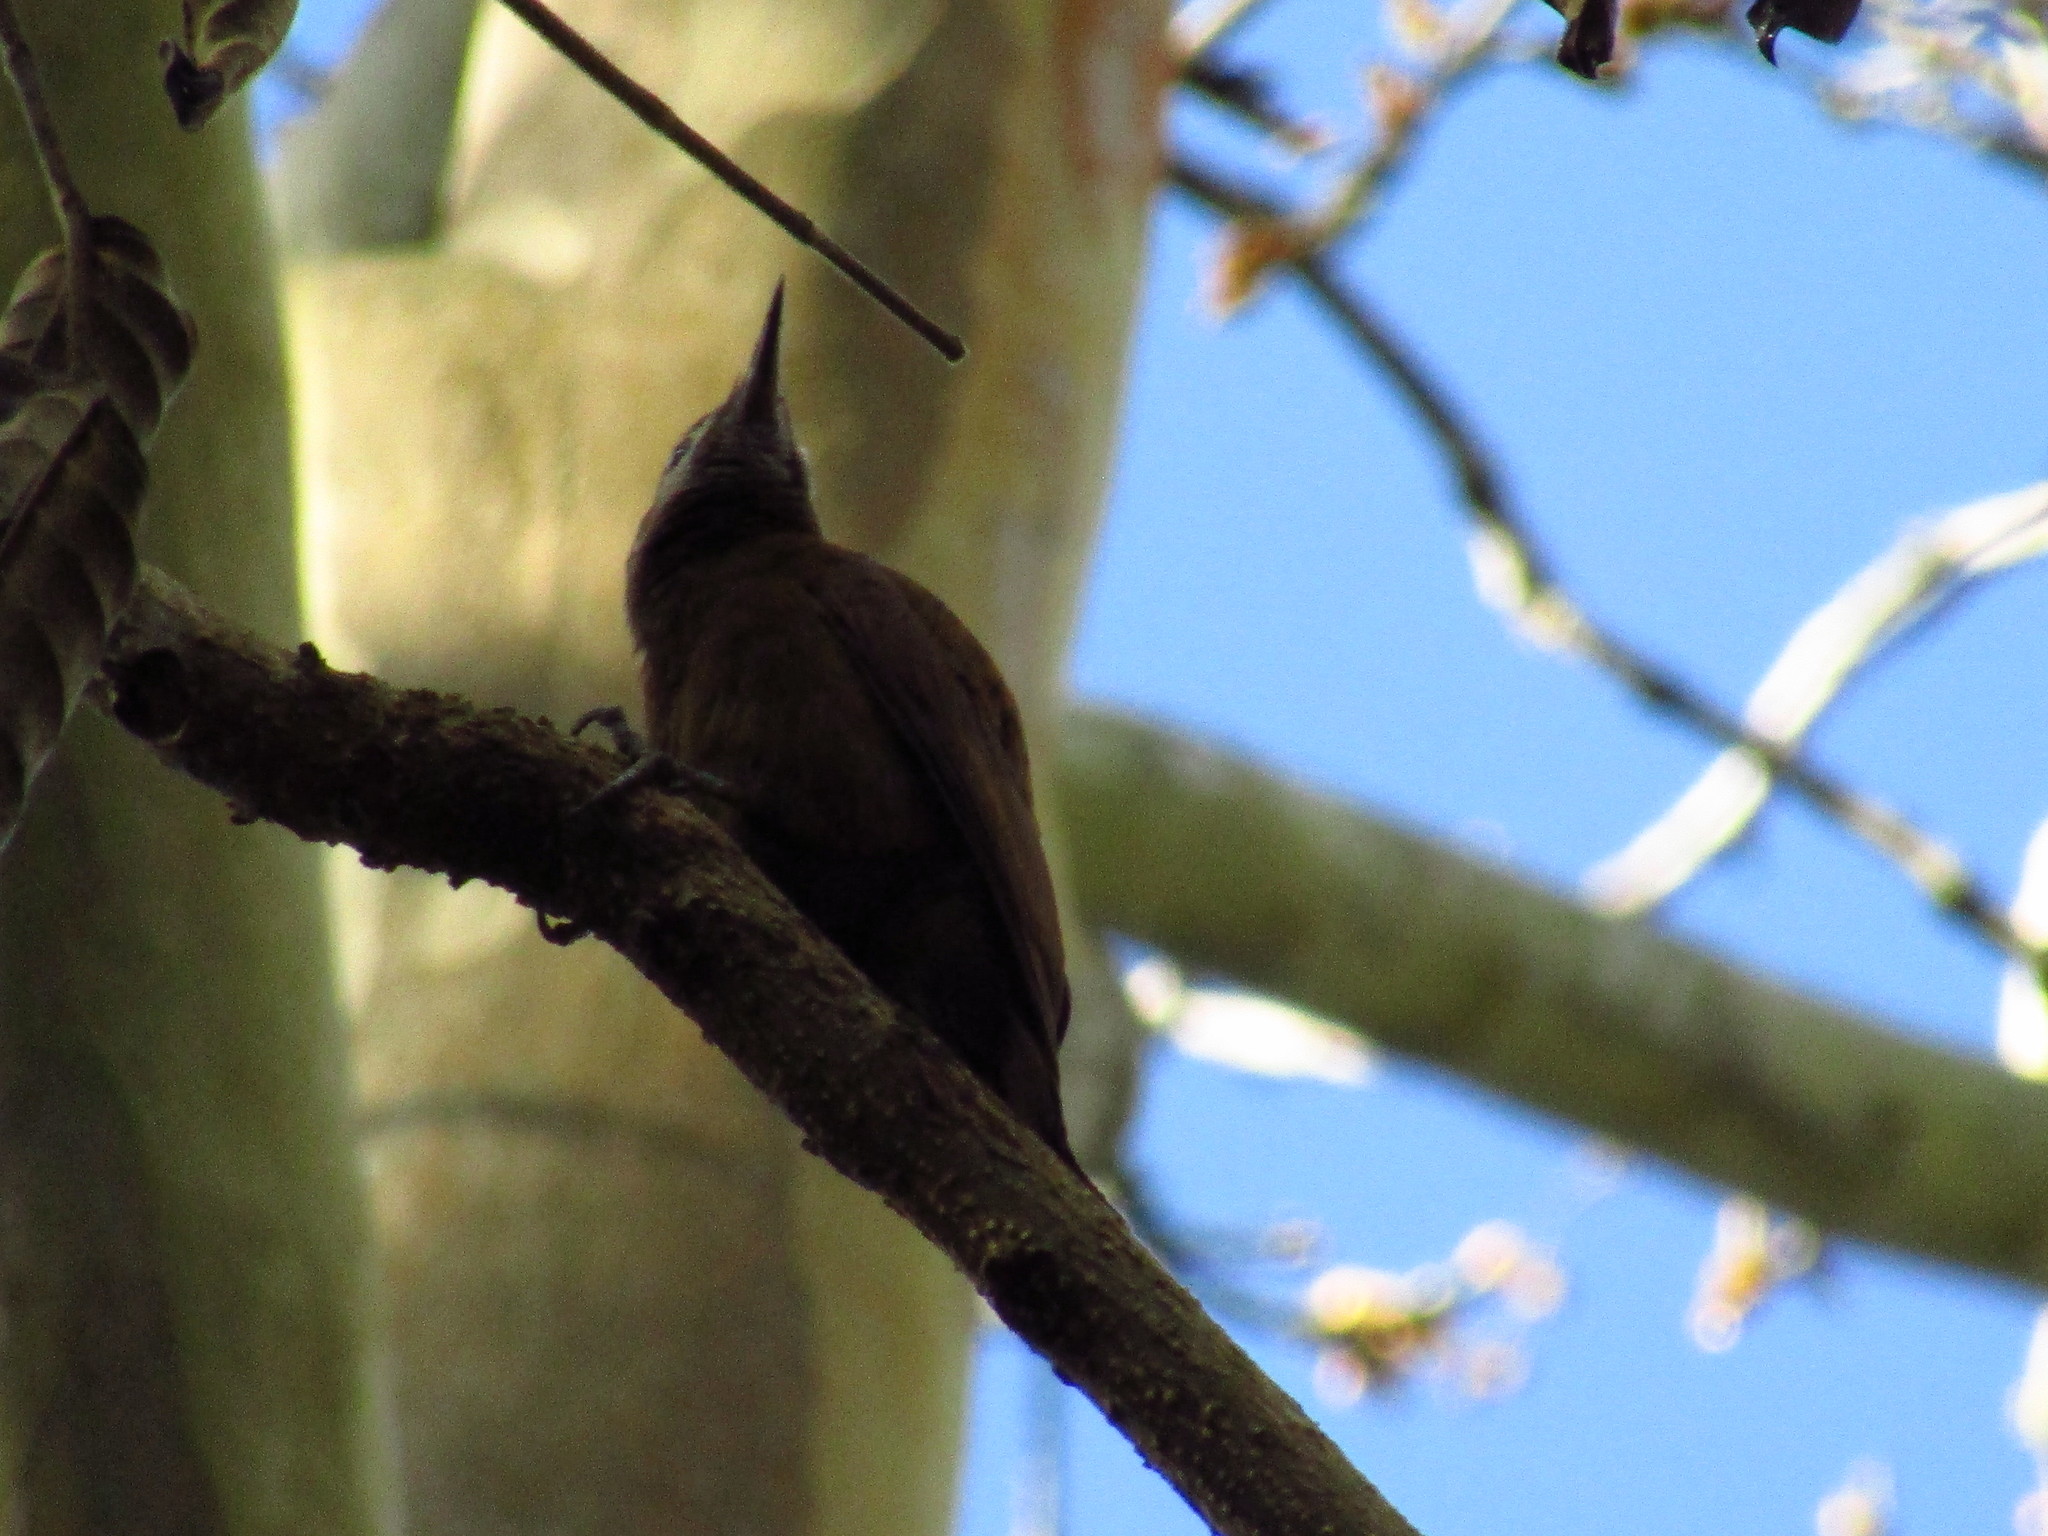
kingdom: Animalia
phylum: Chordata
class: Aves
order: Piciformes
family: Picidae
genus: Leuconotopicus
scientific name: Leuconotopicus fumigatus
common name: Smoky-brown woodpecker
